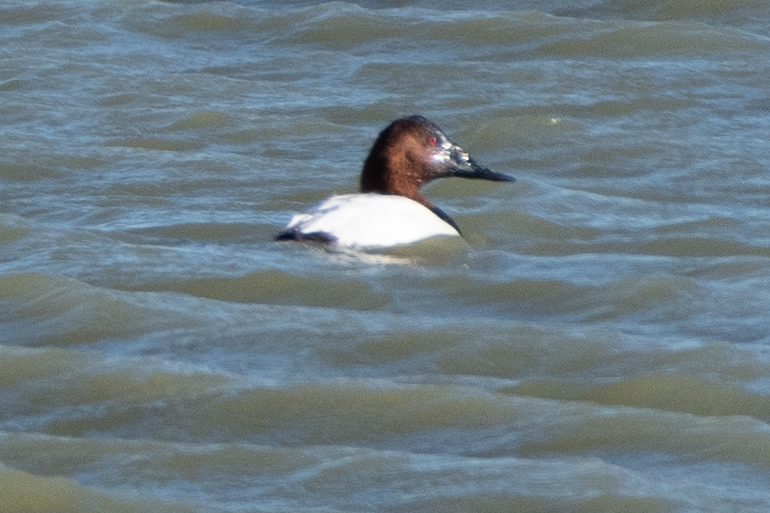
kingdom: Animalia
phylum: Chordata
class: Aves
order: Anseriformes
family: Anatidae
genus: Aythya
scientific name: Aythya valisineria
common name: Canvasback
